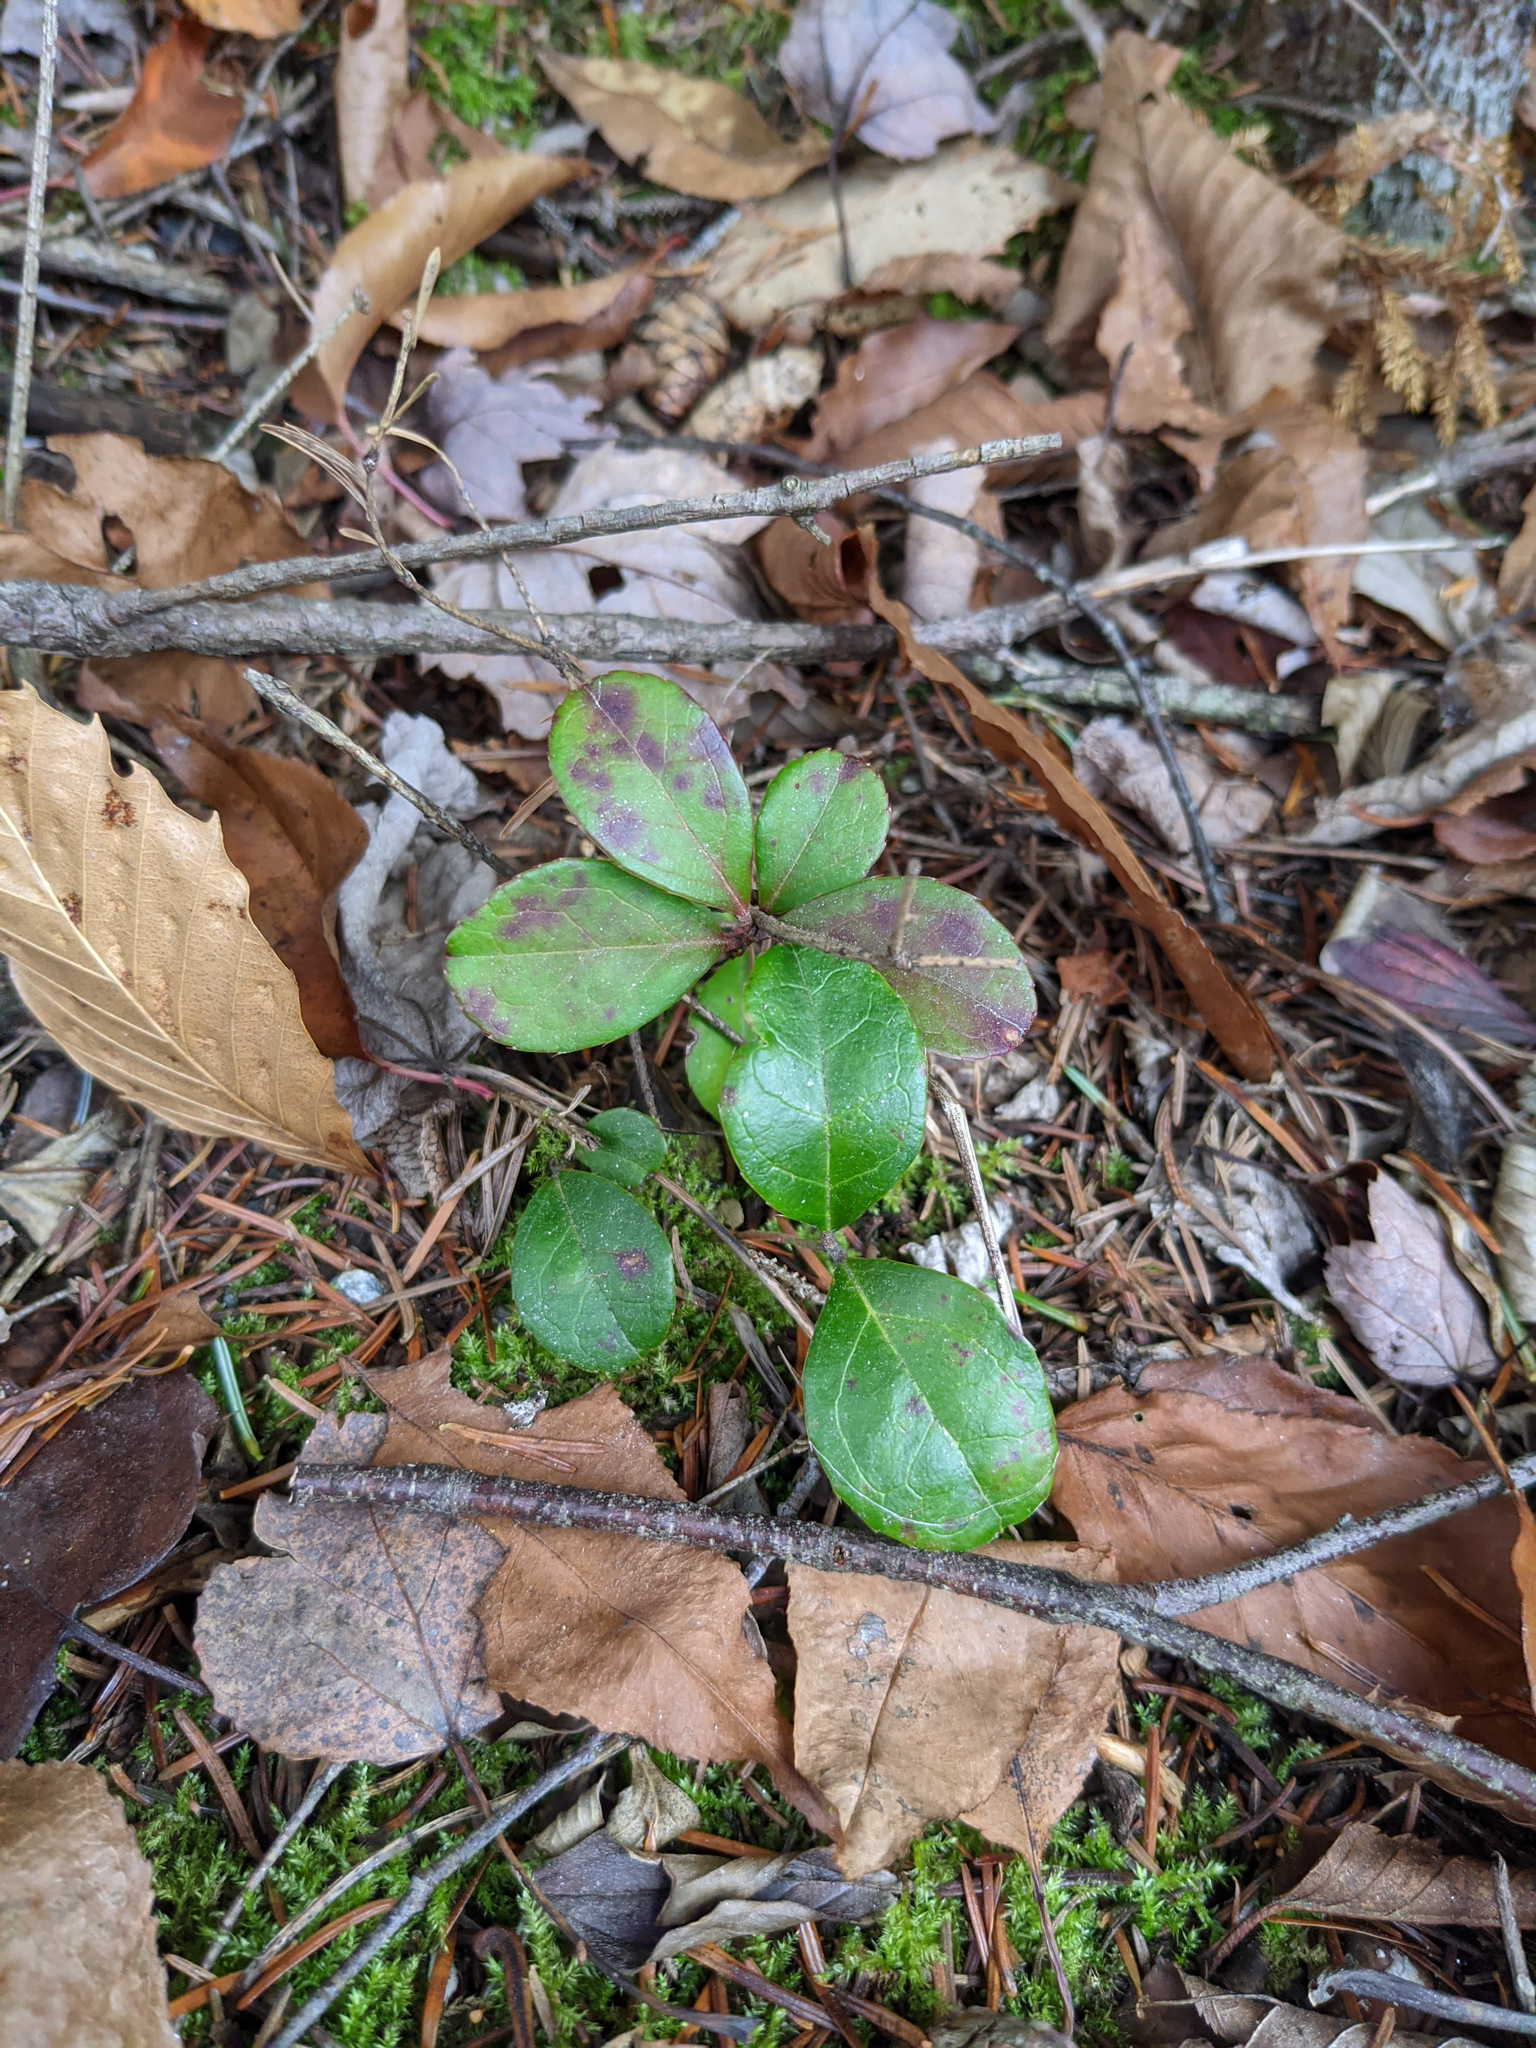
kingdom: Plantae
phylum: Tracheophyta
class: Magnoliopsida
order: Ericales
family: Ericaceae
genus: Gaultheria
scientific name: Gaultheria procumbens
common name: Checkerberry
